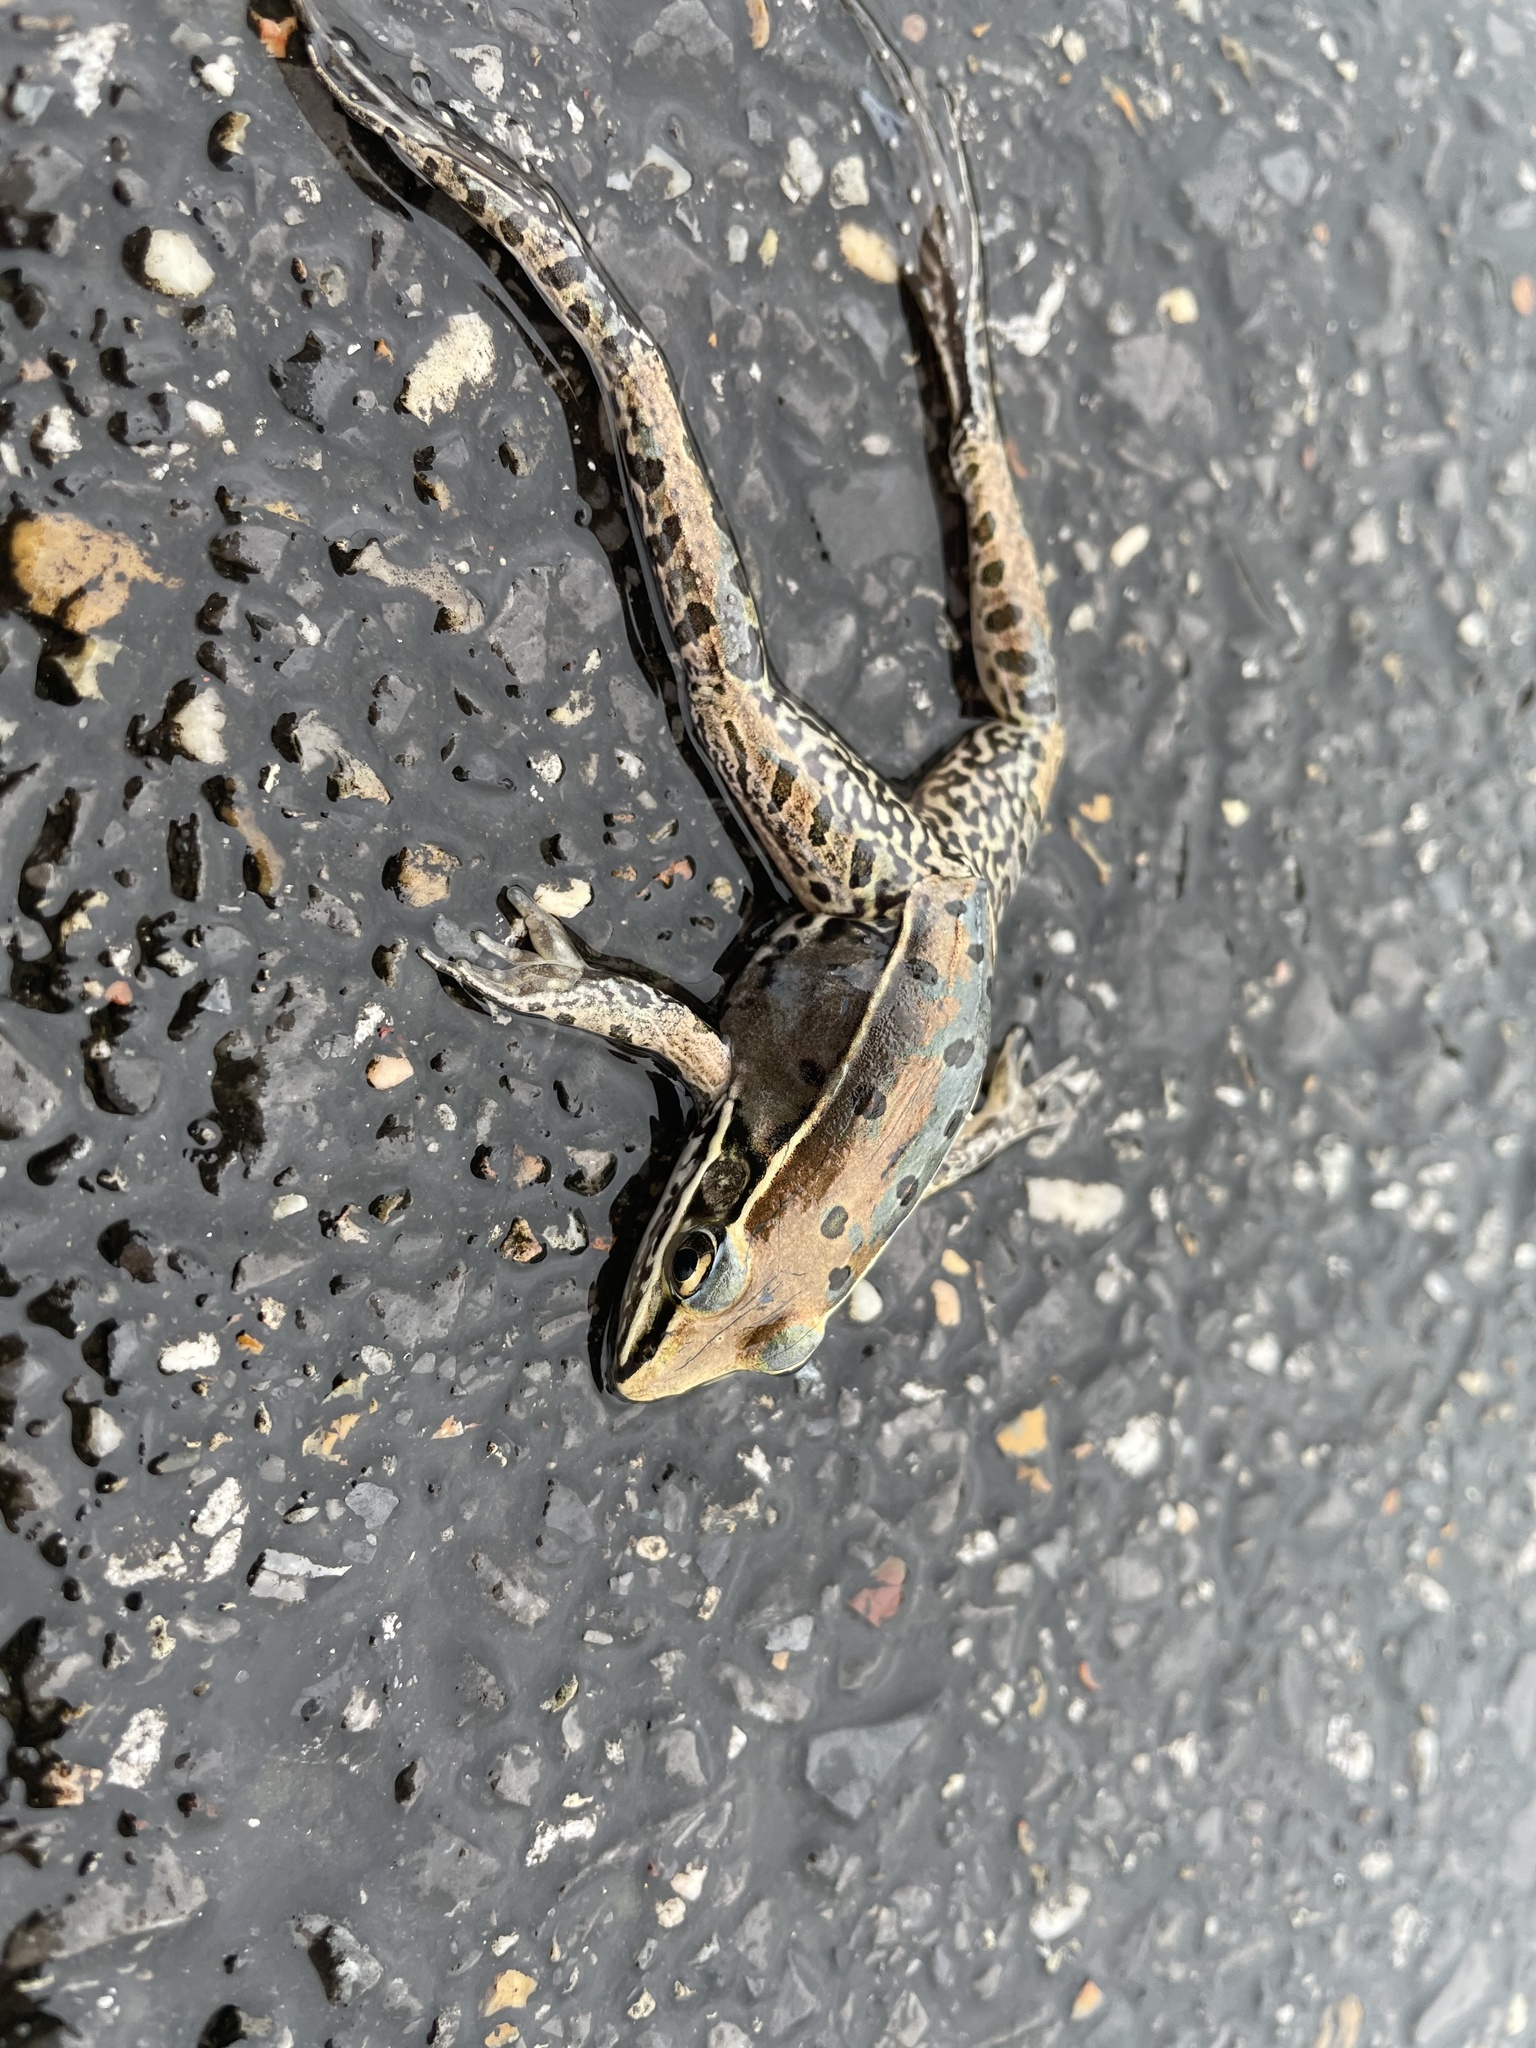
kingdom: Animalia
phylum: Chordata
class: Amphibia
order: Anura
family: Ranidae
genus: Lithobates
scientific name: Lithobates sphenocephalus
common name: Southern leopard frog
